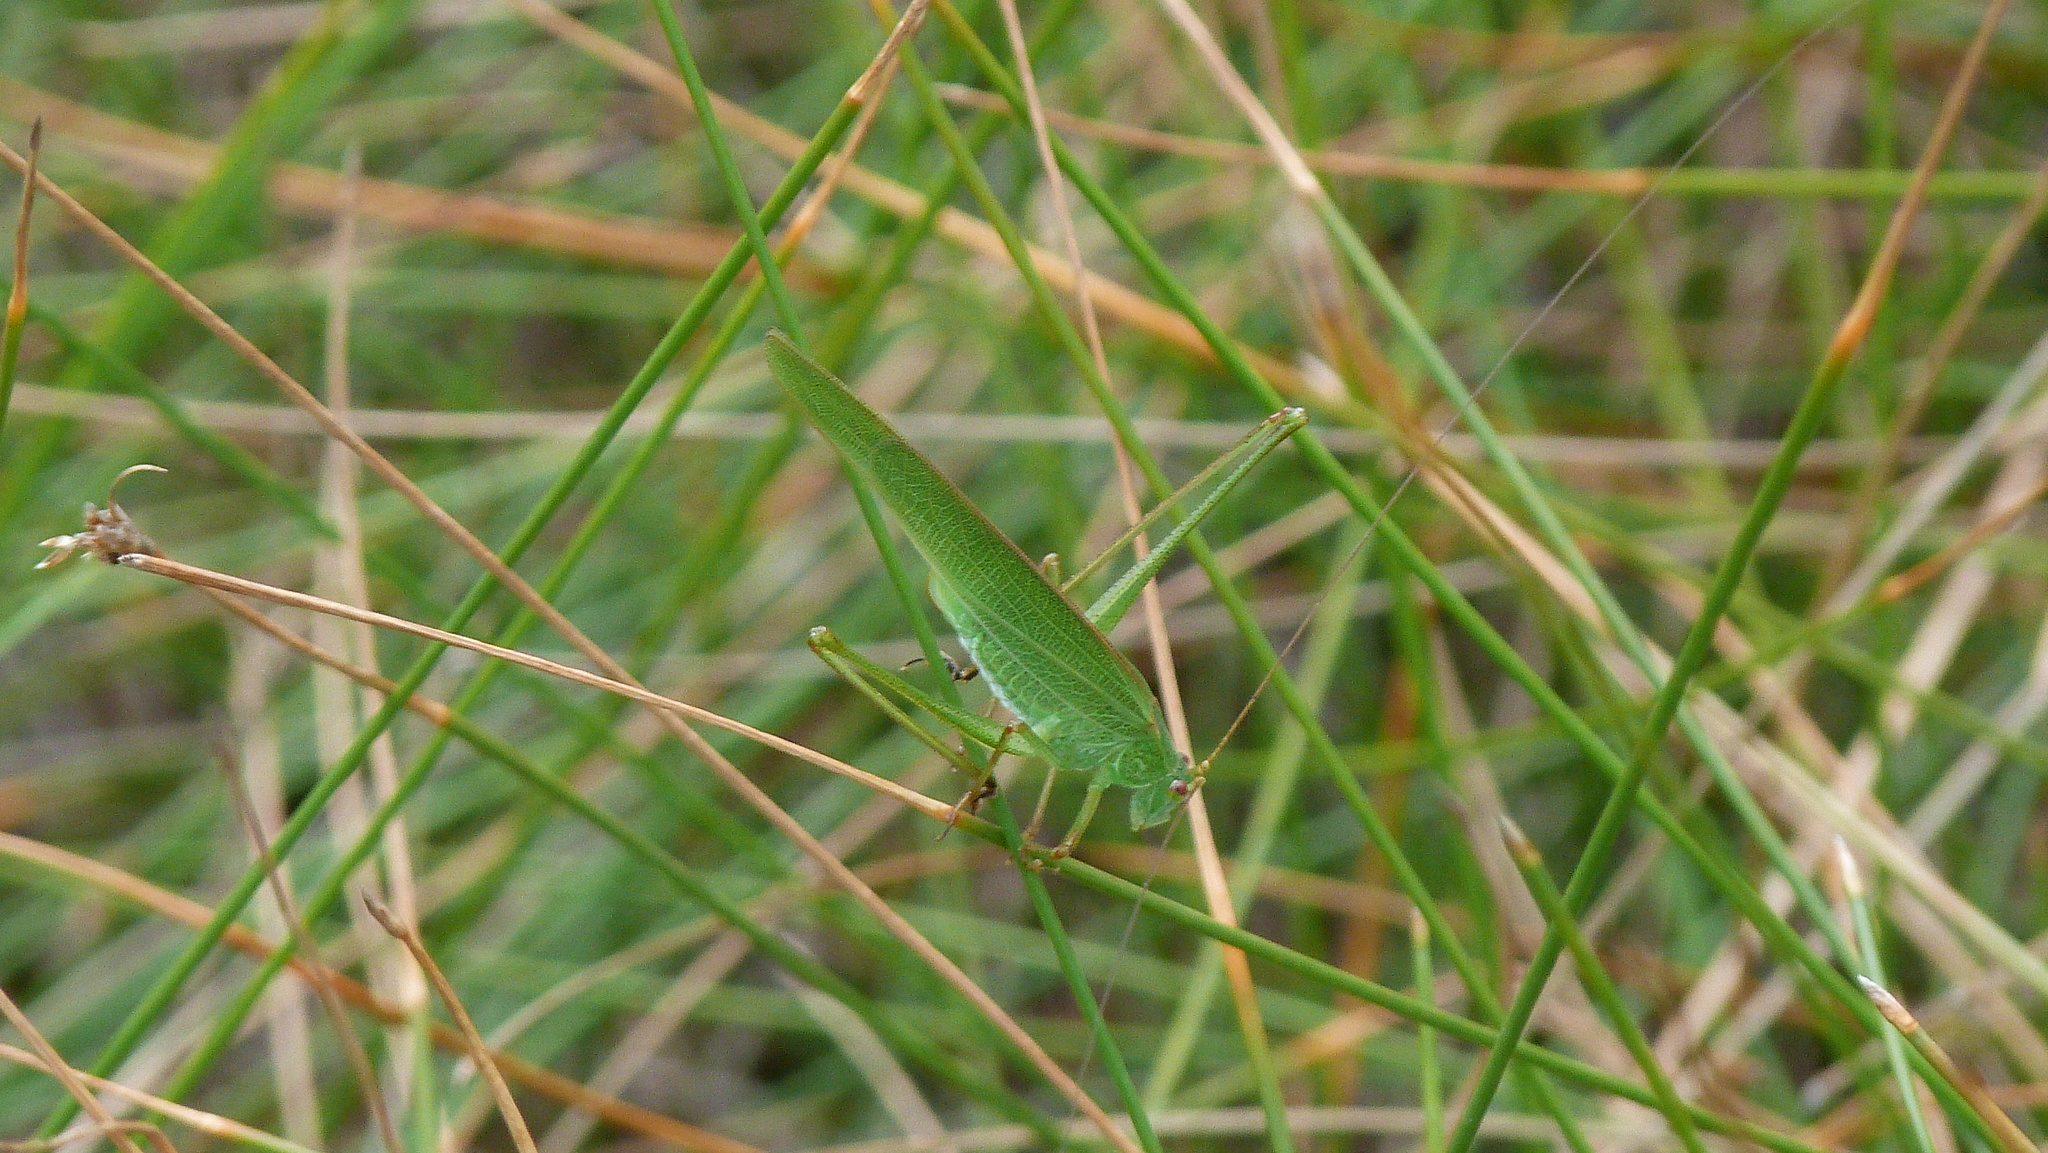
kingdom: Animalia
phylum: Arthropoda
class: Insecta
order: Orthoptera
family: Tettigoniidae
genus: Phaneroptera
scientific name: Phaneroptera falcata
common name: Sickle-bearing bush-cricket
